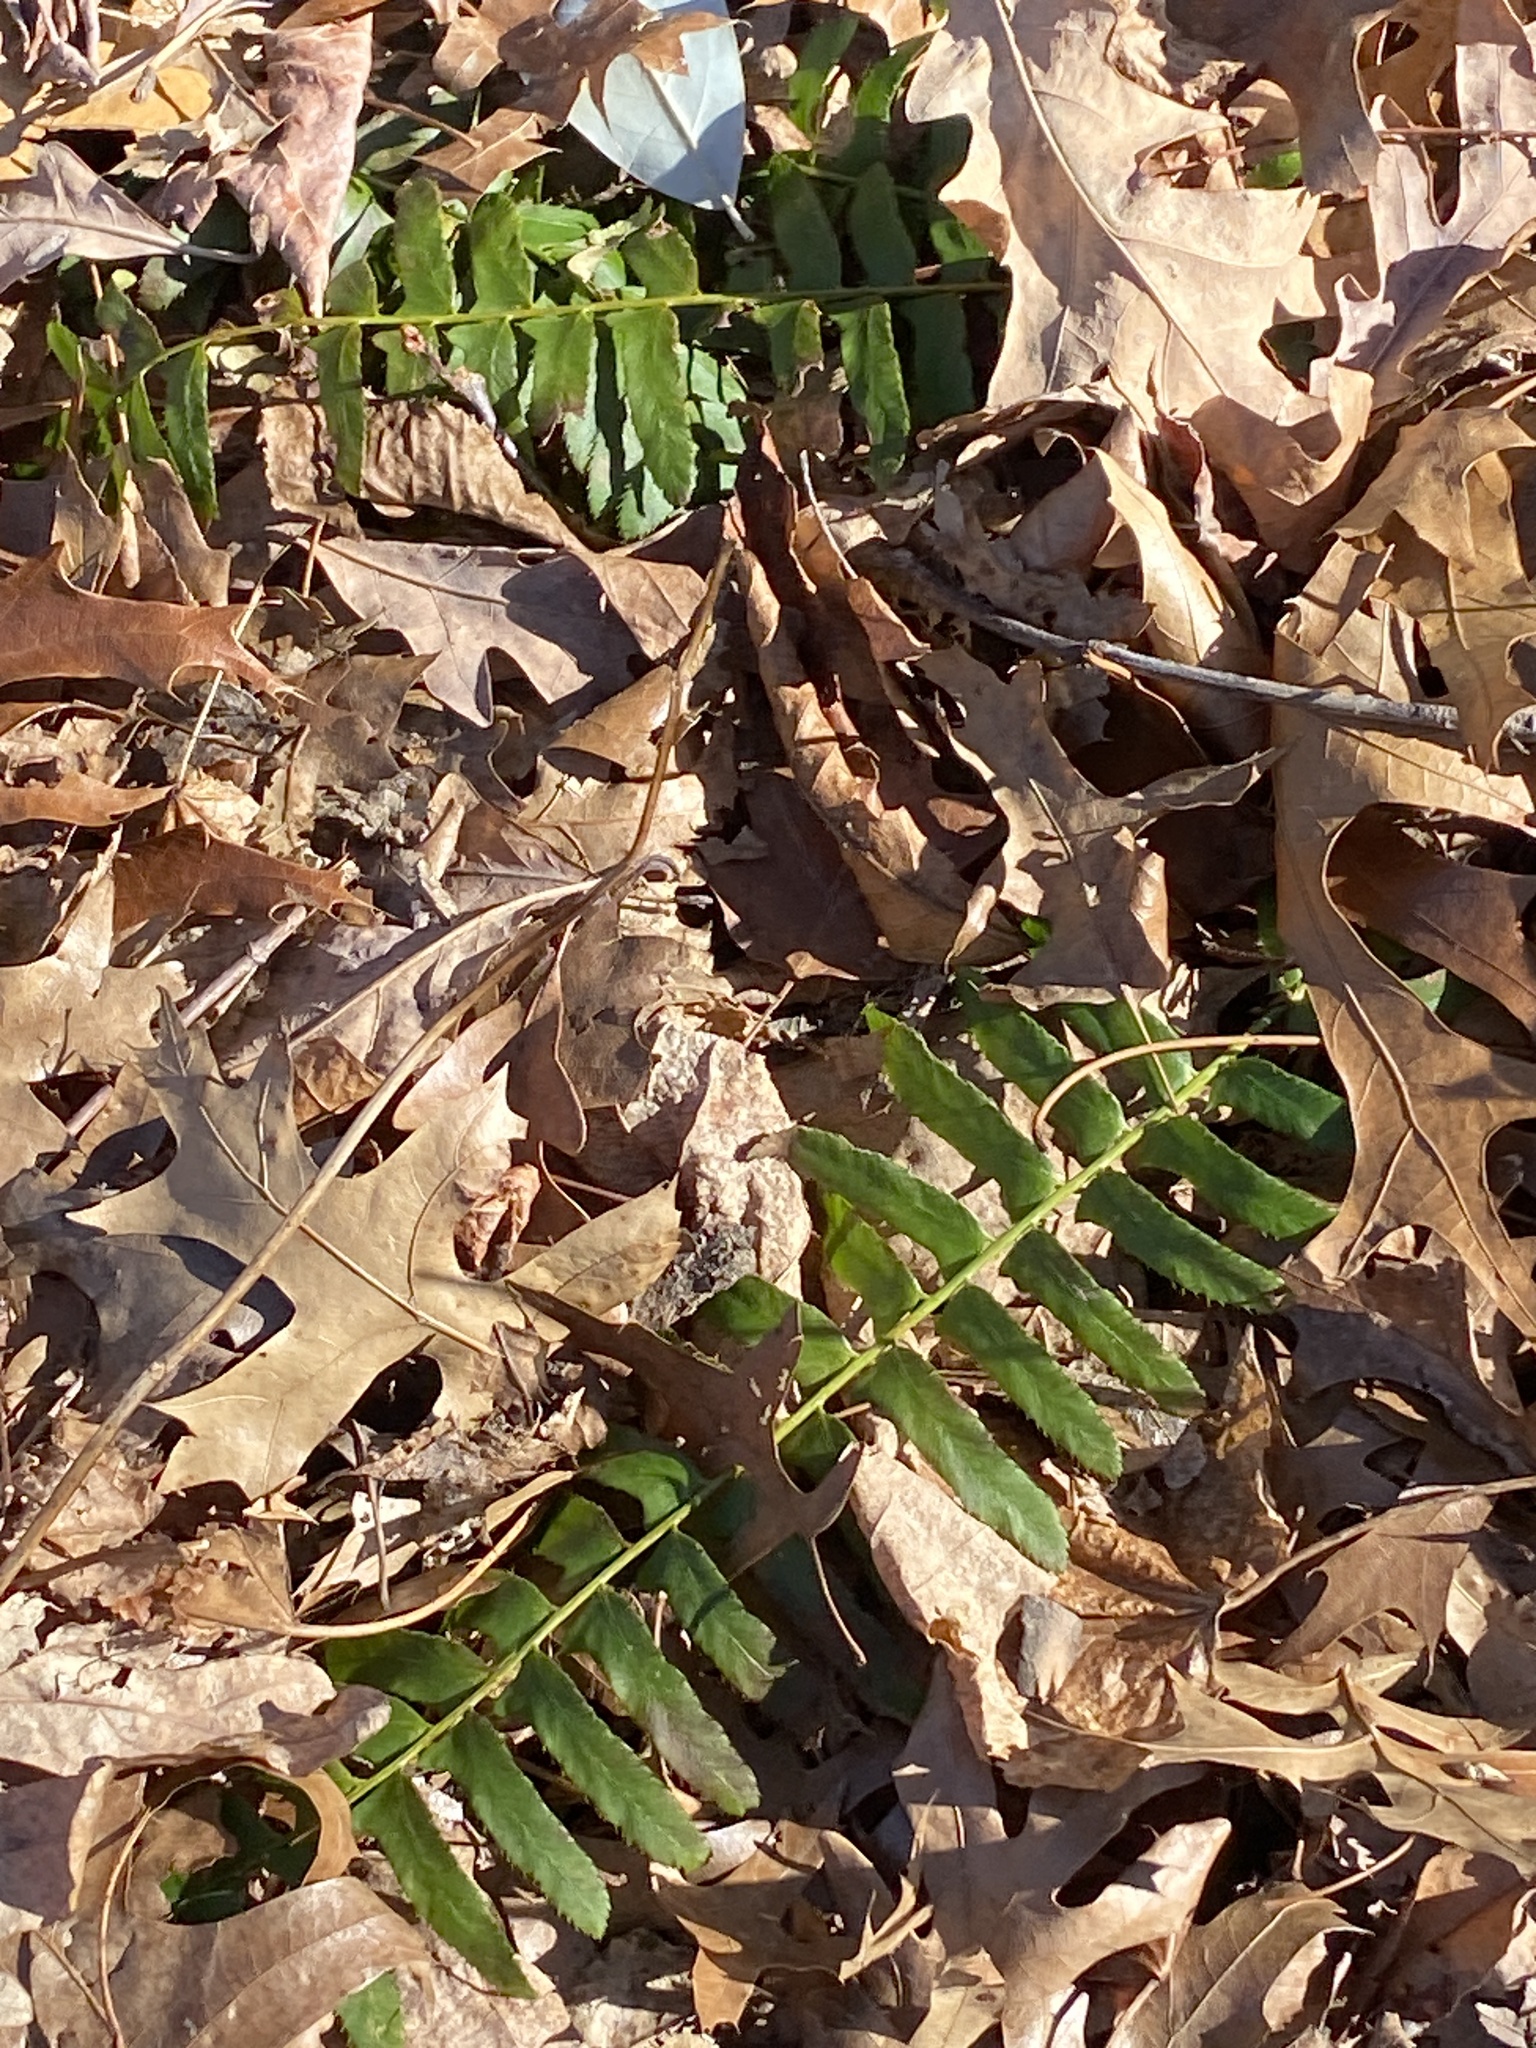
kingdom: Plantae
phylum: Tracheophyta
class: Polypodiopsida
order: Polypodiales
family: Dryopteridaceae
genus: Polystichum
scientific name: Polystichum acrostichoides
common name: Christmas fern
